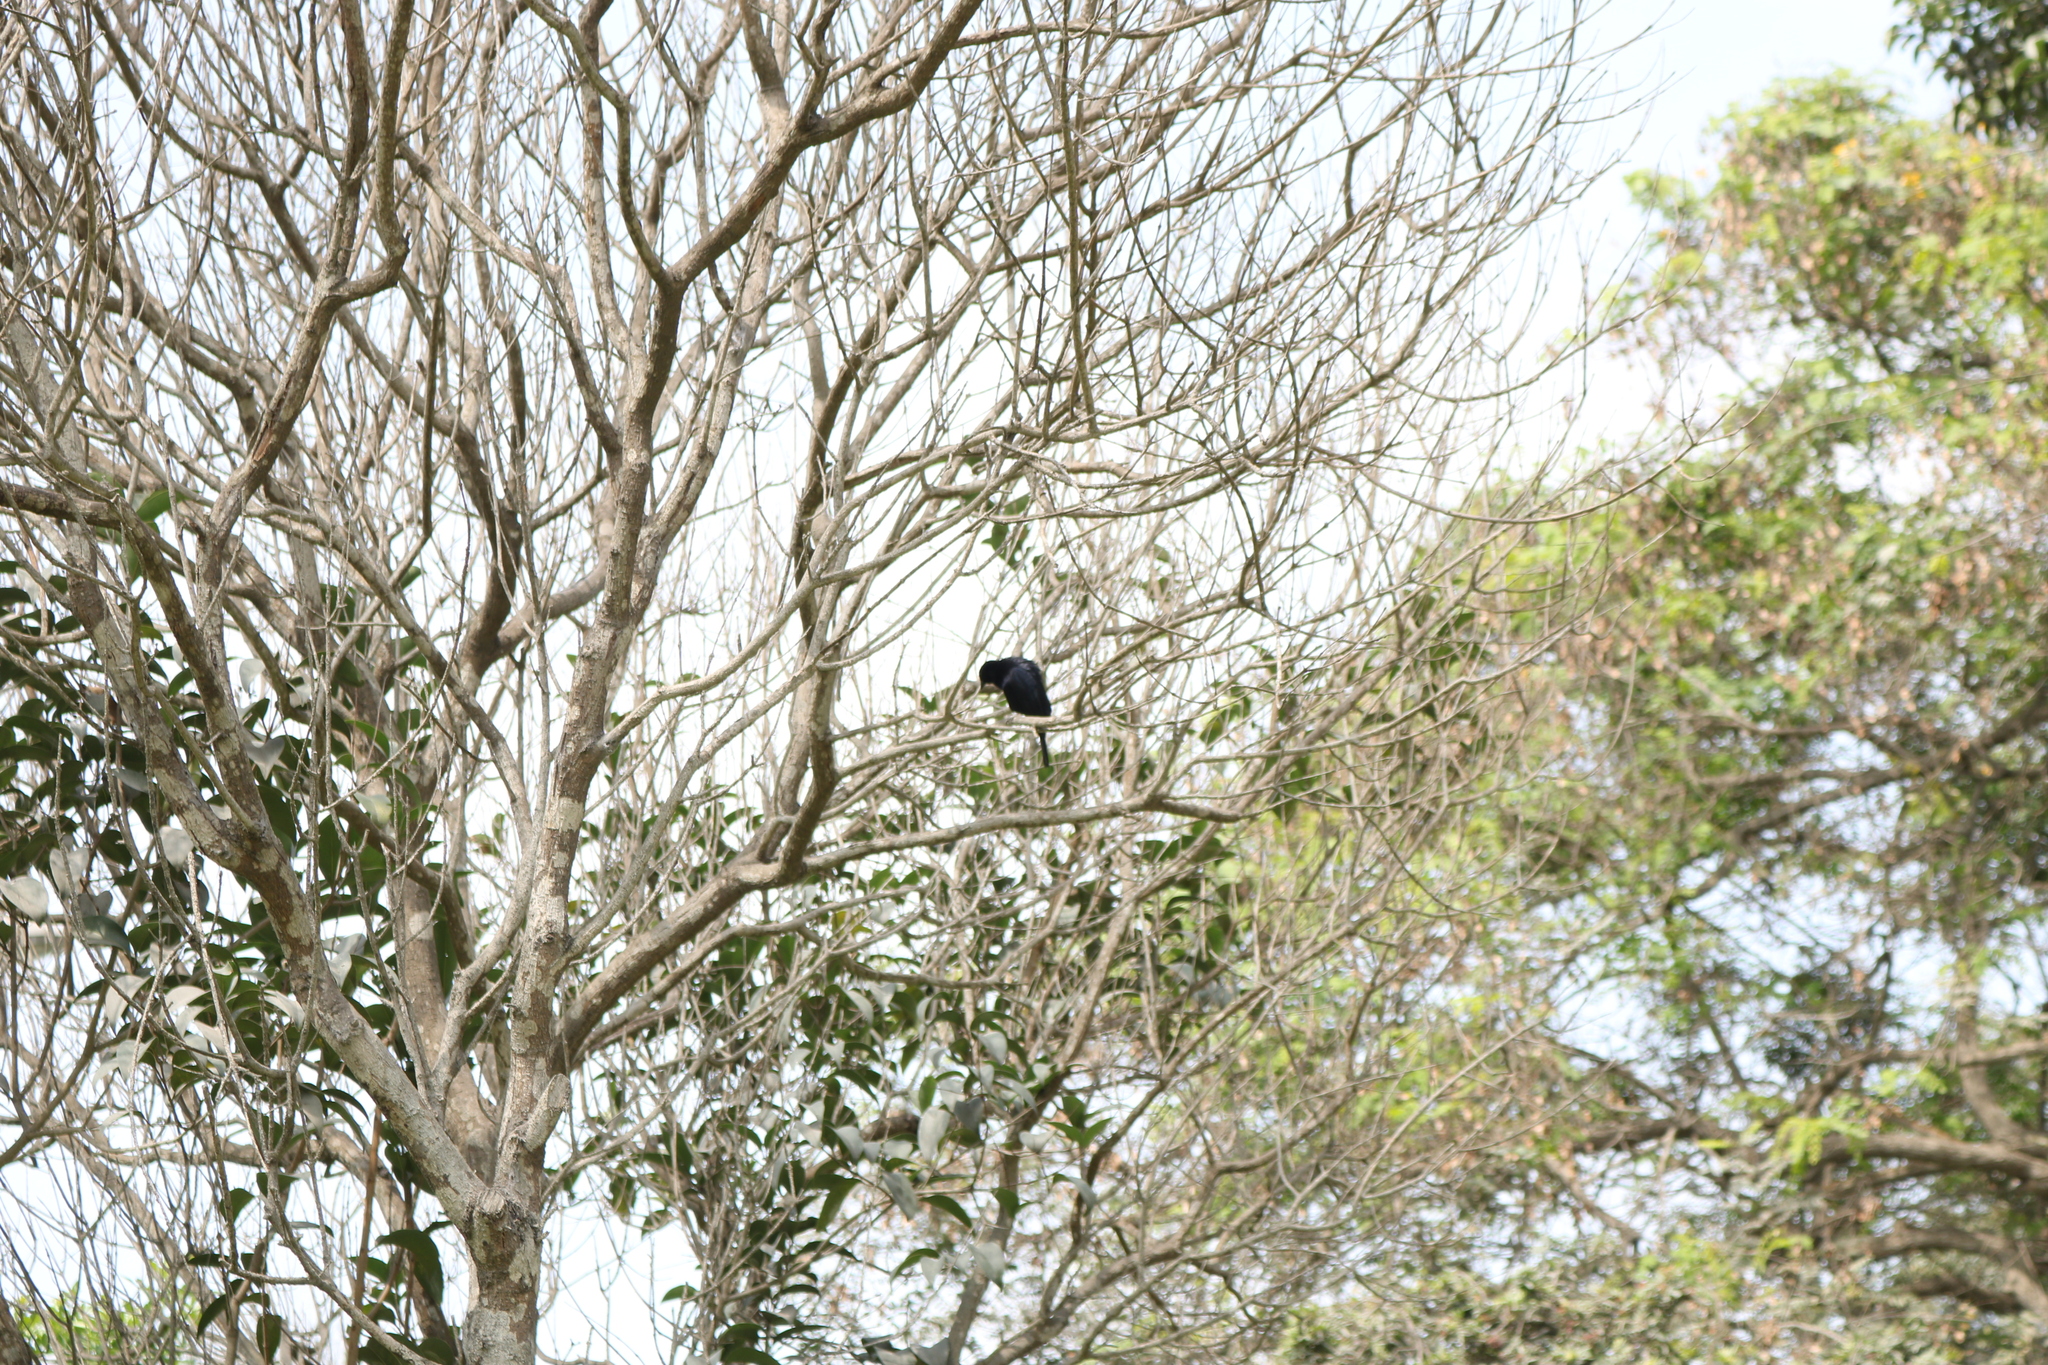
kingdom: Animalia
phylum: Chordata
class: Aves
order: Passeriformes
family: Icteridae
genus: Dives
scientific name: Dives warczewiczi
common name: Scrub blackbird
